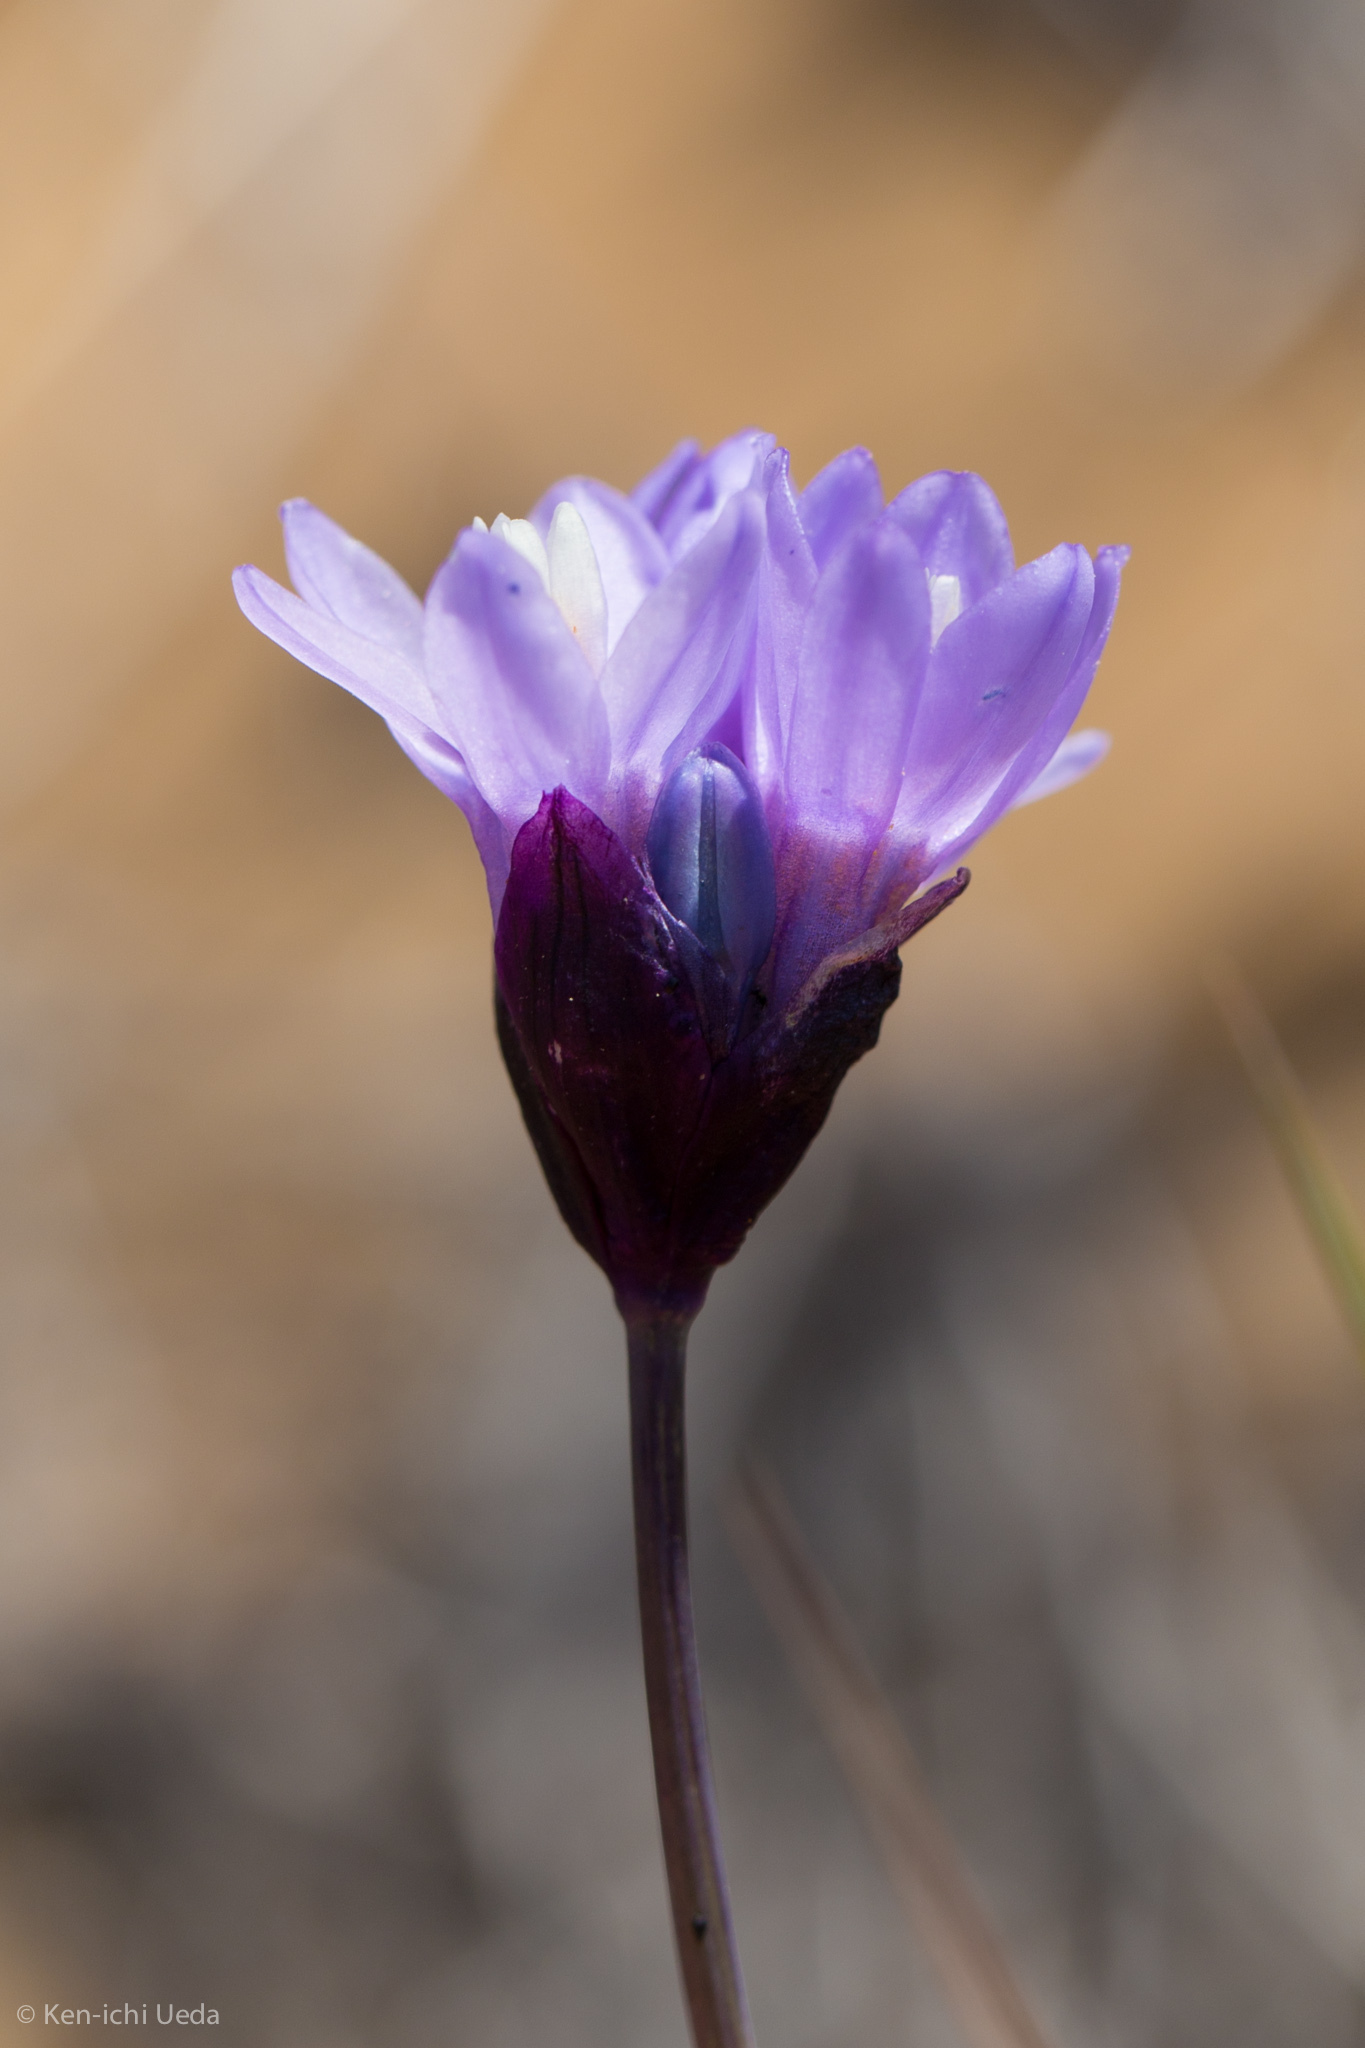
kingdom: Plantae
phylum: Tracheophyta
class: Liliopsida
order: Asparagales
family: Asparagaceae
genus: Dipterostemon
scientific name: Dipterostemon capitatus
